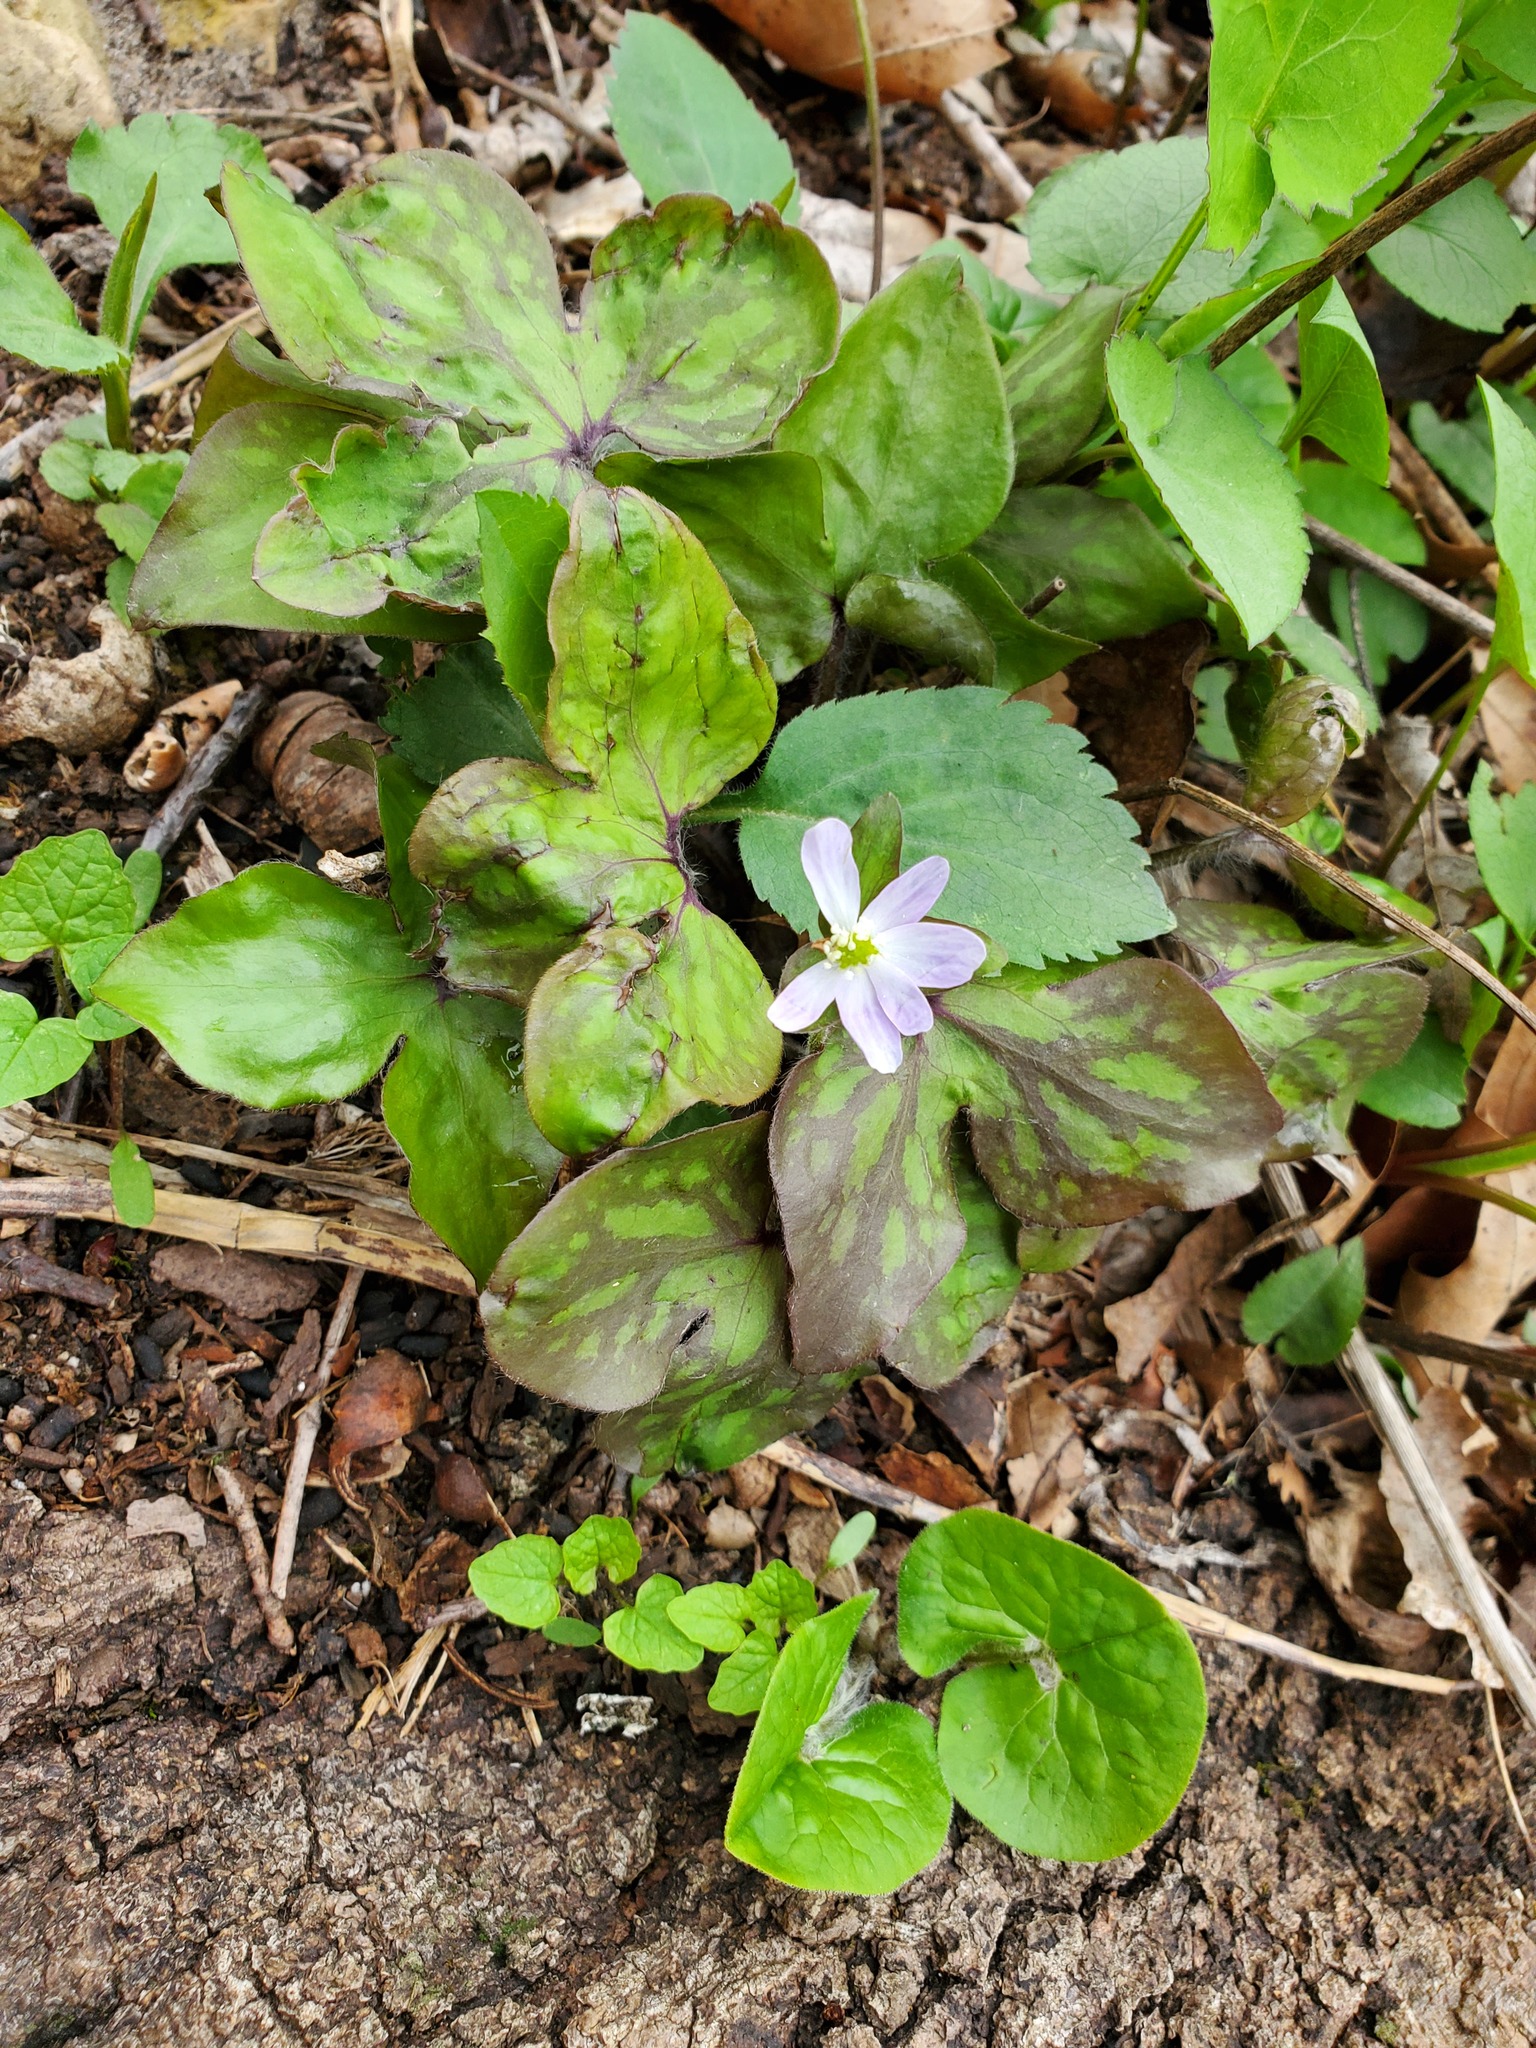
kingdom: Plantae
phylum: Tracheophyta
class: Magnoliopsida
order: Ranunculales
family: Ranunculaceae
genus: Hepatica
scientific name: Hepatica acutiloba
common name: Sharp-lobed hepatica
